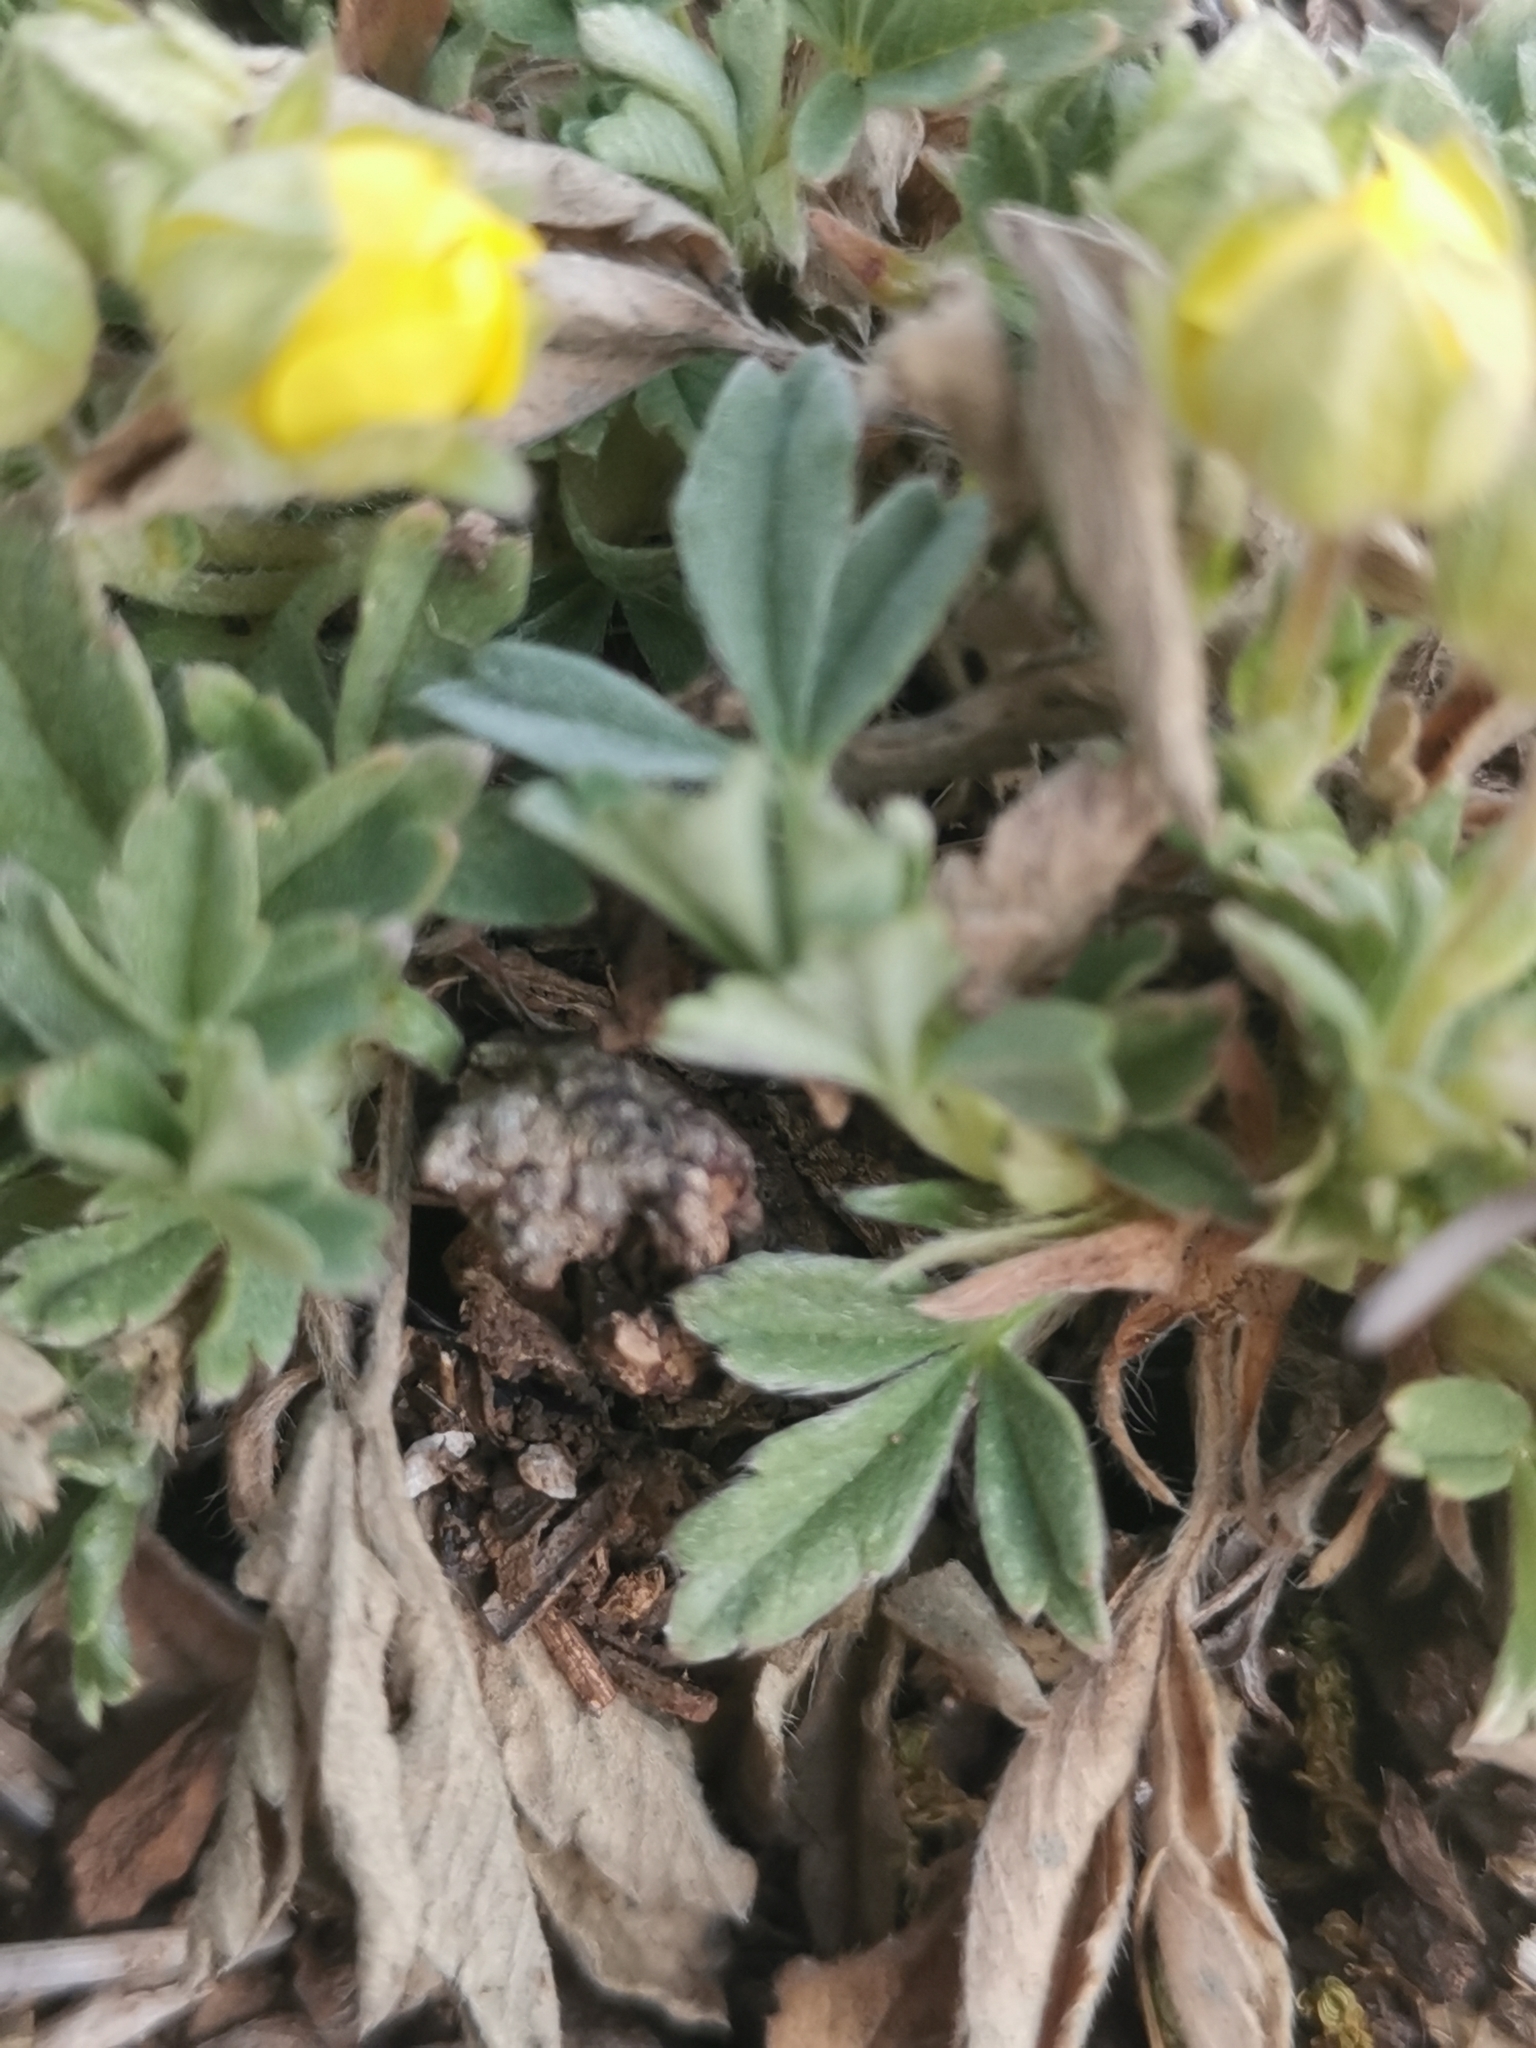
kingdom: Plantae
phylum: Tracheophyta
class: Magnoliopsida
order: Rosales
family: Rosaceae
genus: Potentilla
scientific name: Potentilla tommasiniana
